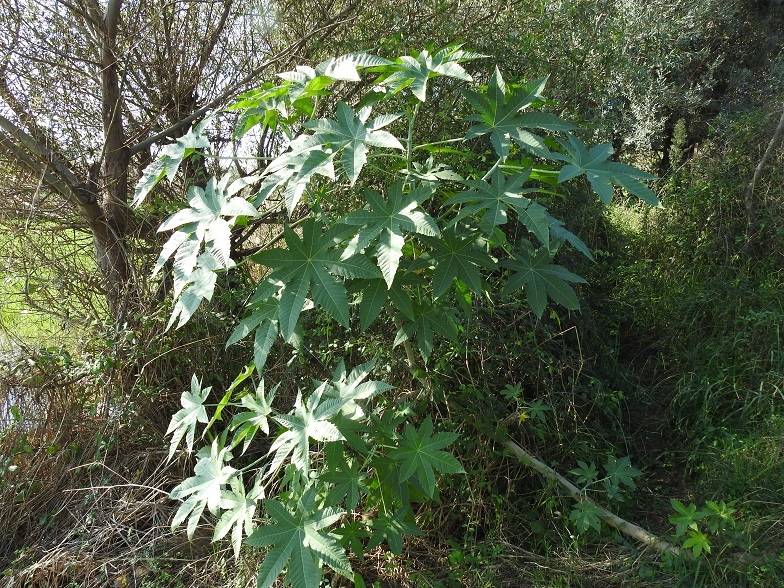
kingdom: Plantae
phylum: Tracheophyta
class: Magnoliopsida
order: Malpighiales
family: Euphorbiaceae
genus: Ricinus
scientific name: Ricinus communis
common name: Castor-oil-plant
